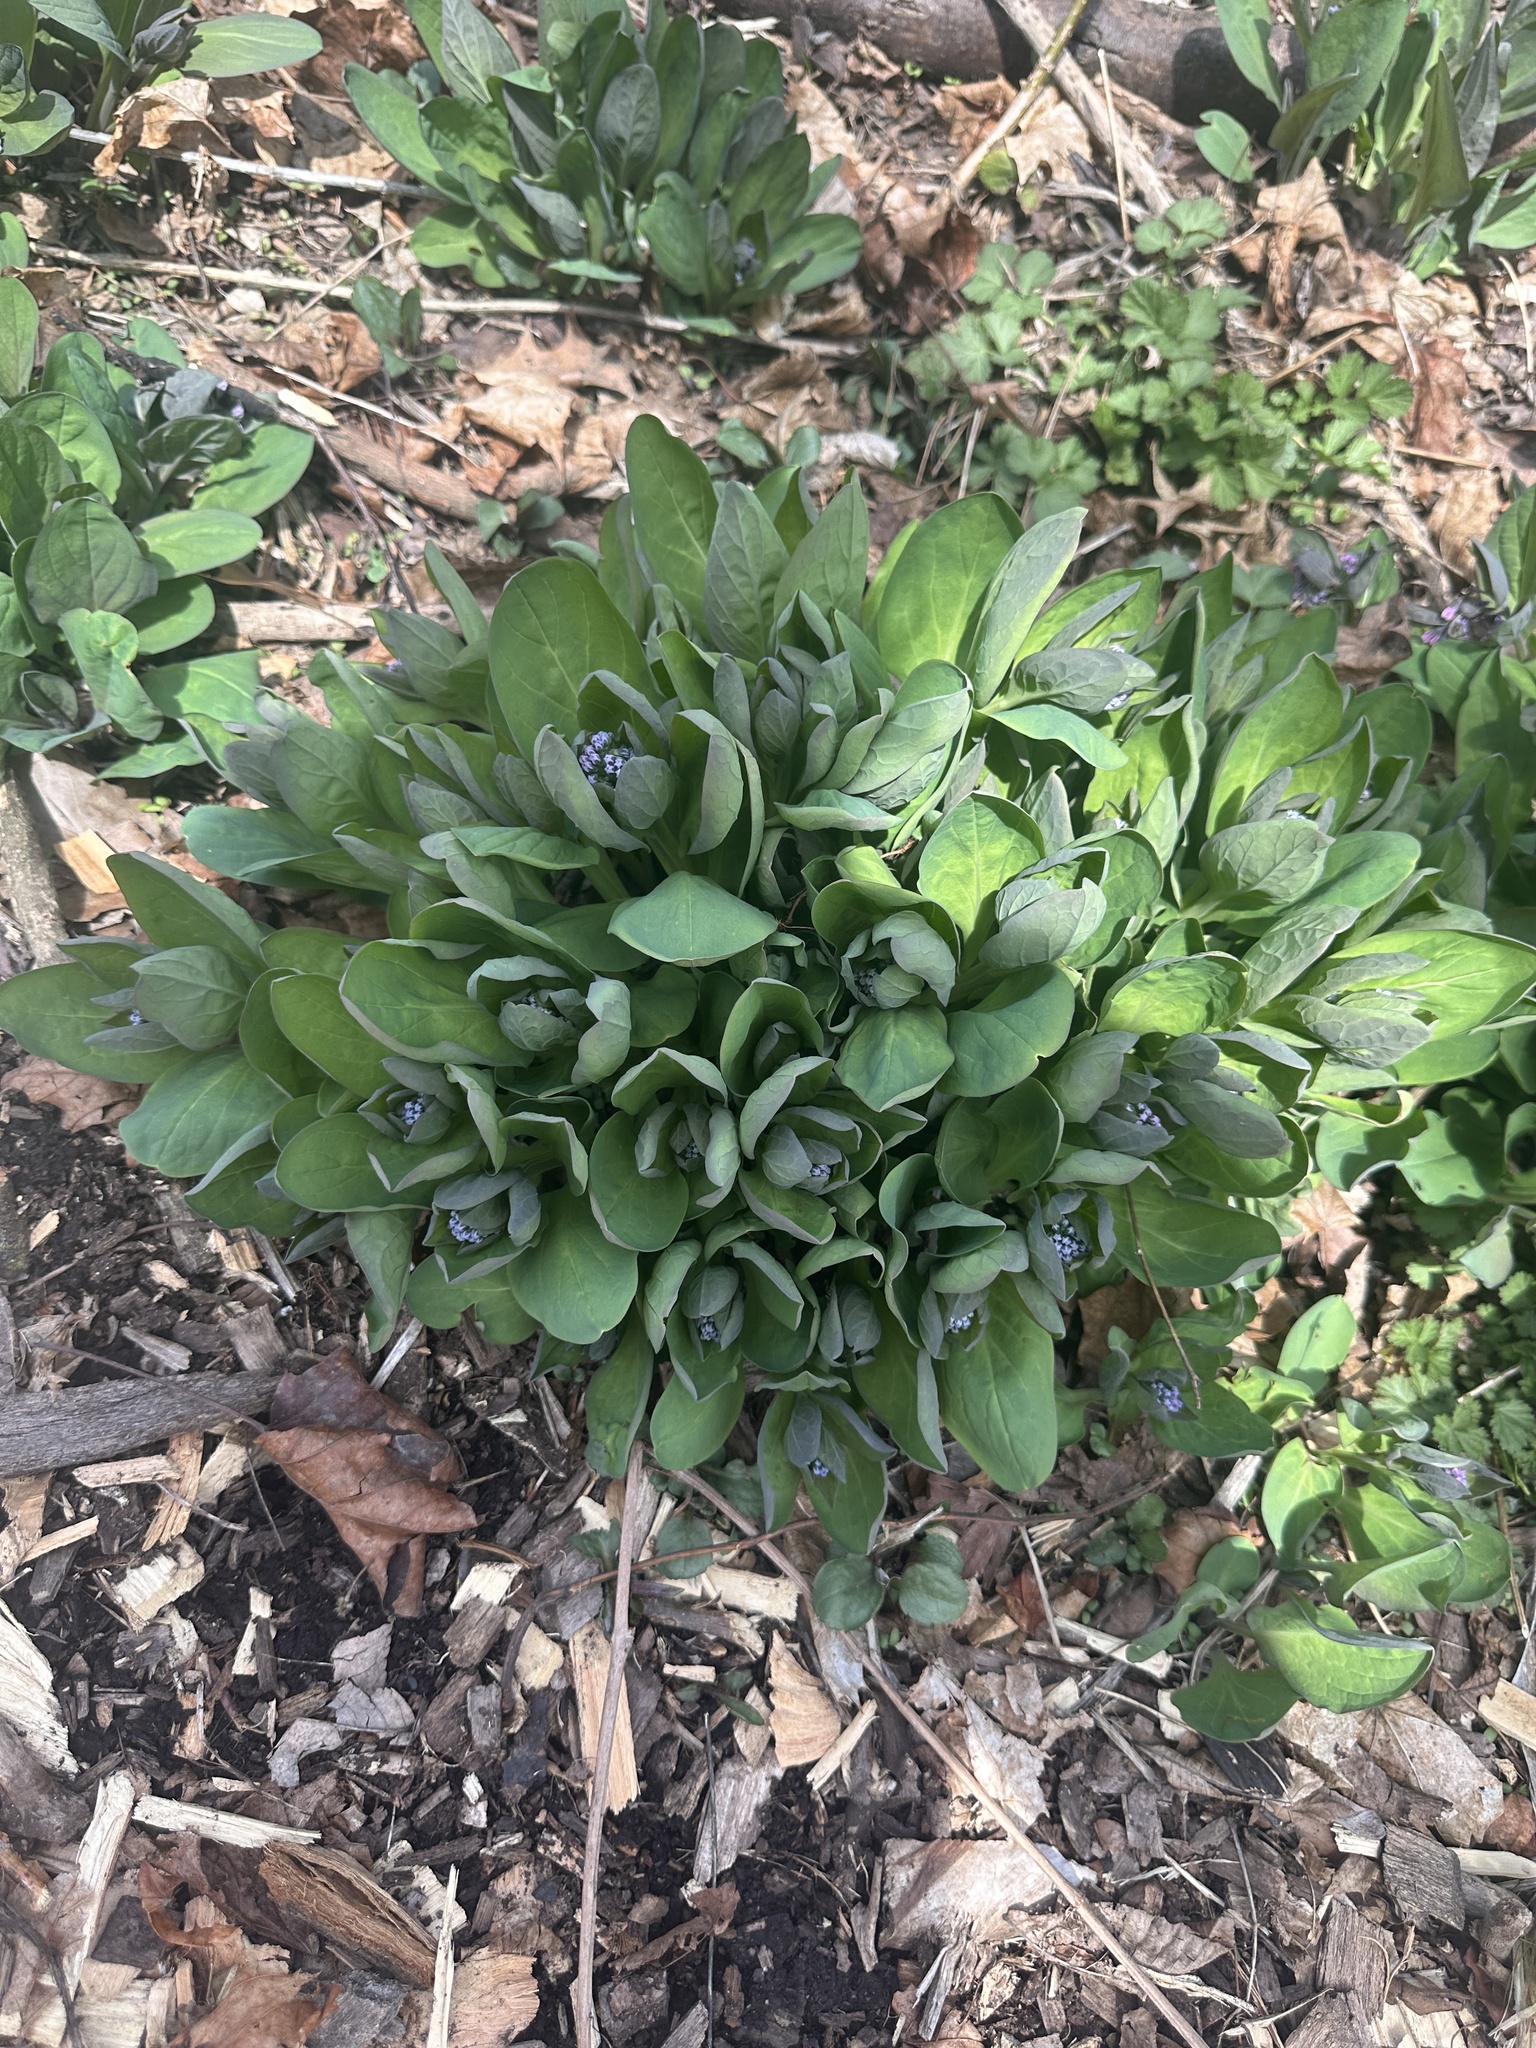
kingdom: Plantae
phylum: Tracheophyta
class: Magnoliopsida
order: Boraginales
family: Boraginaceae
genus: Mertensia
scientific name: Mertensia virginica
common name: Virginia bluebells
